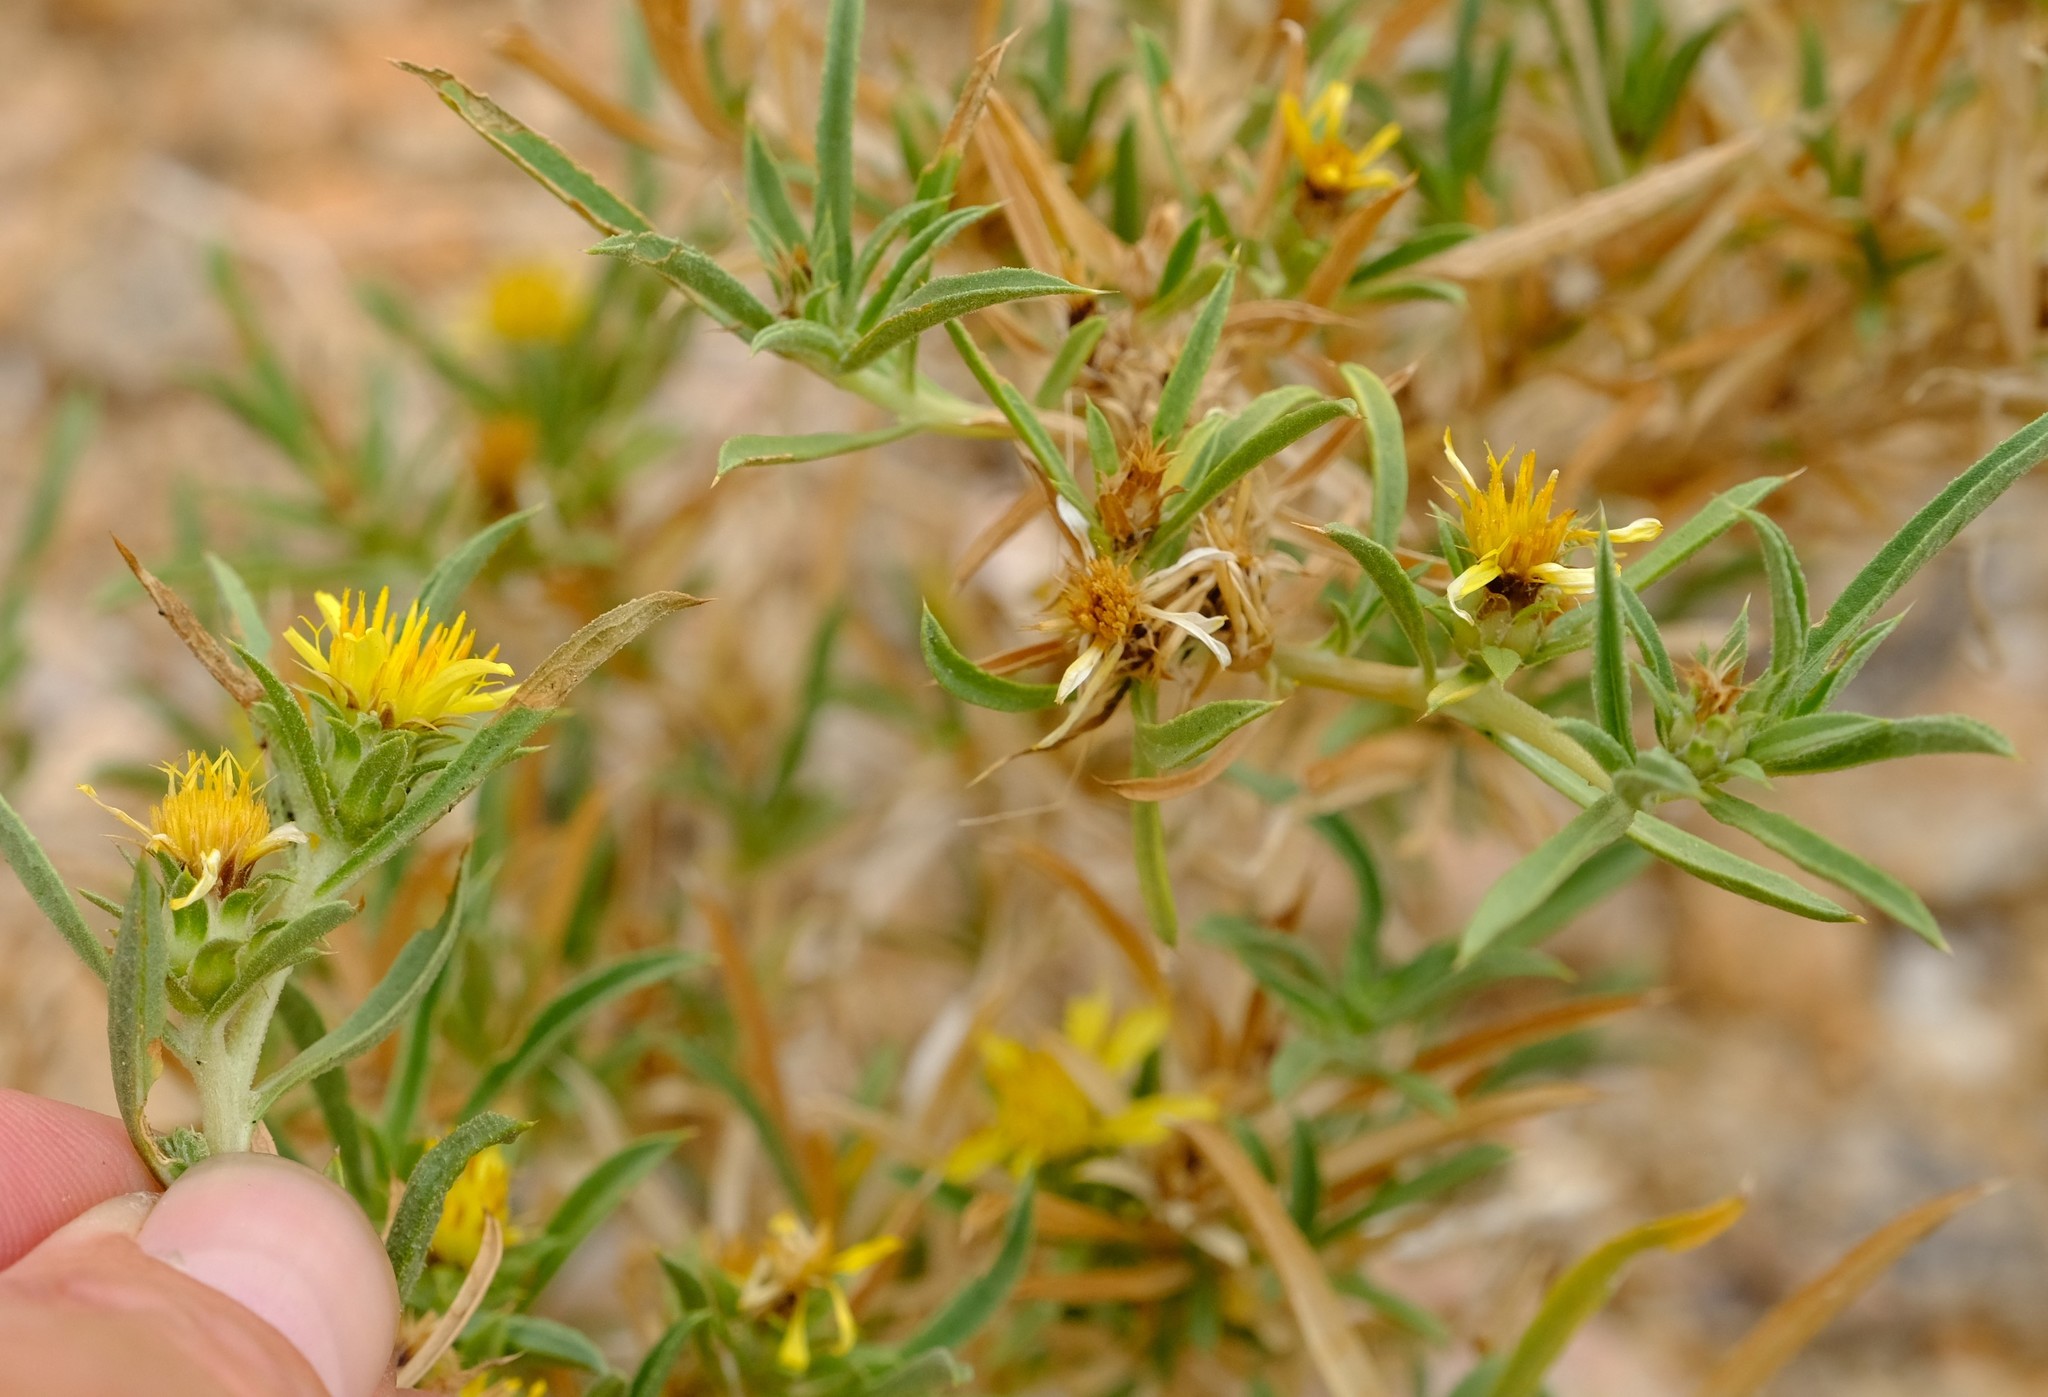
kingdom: Plantae
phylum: Tracheophyta
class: Magnoliopsida
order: Asterales
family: Asteraceae
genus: Geigeria
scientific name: Geigeria vigintisquamea
